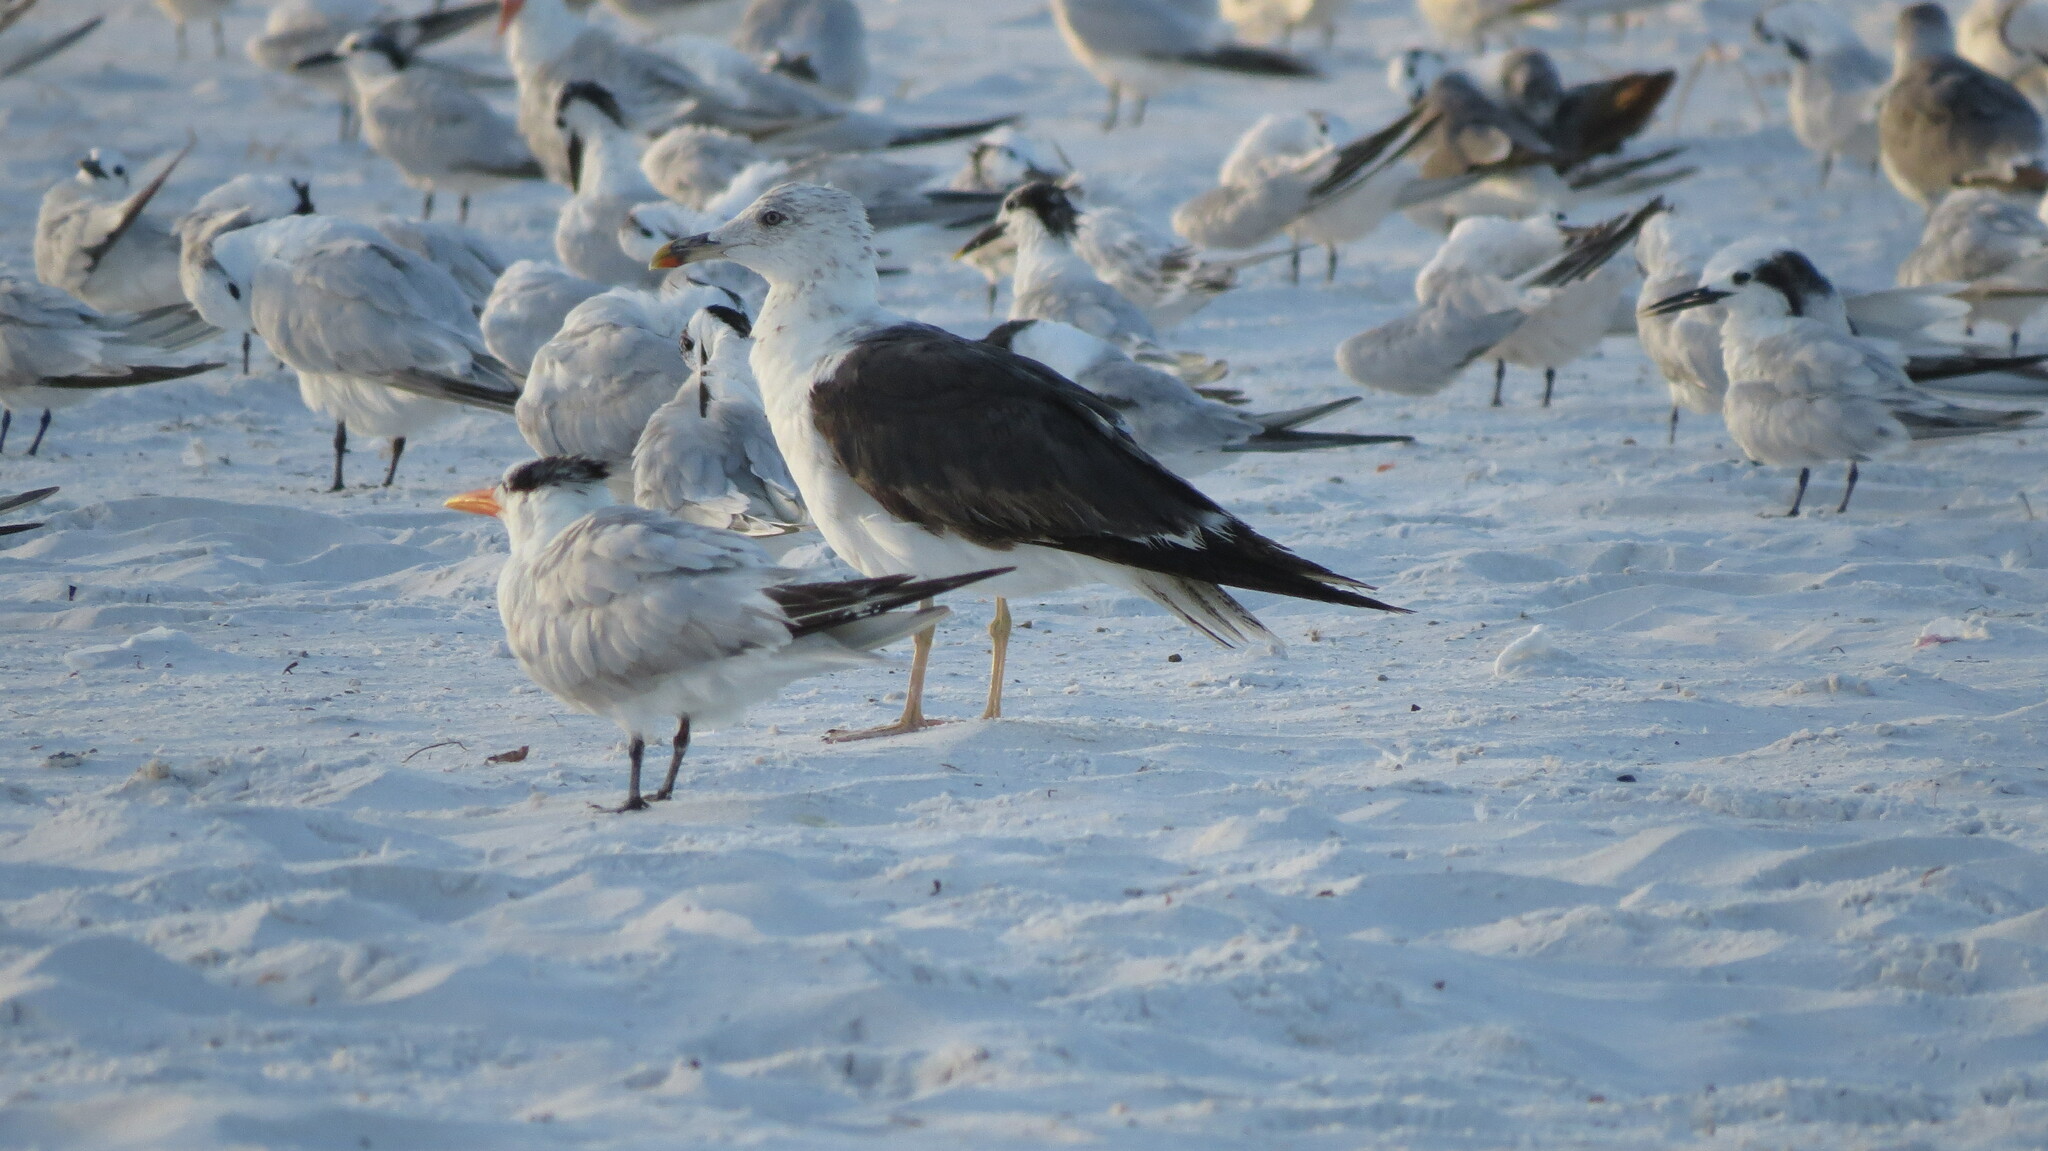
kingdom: Animalia
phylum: Chordata
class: Aves
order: Charadriiformes
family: Laridae
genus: Larus
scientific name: Larus fuscus
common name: Lesser black-backed gull
